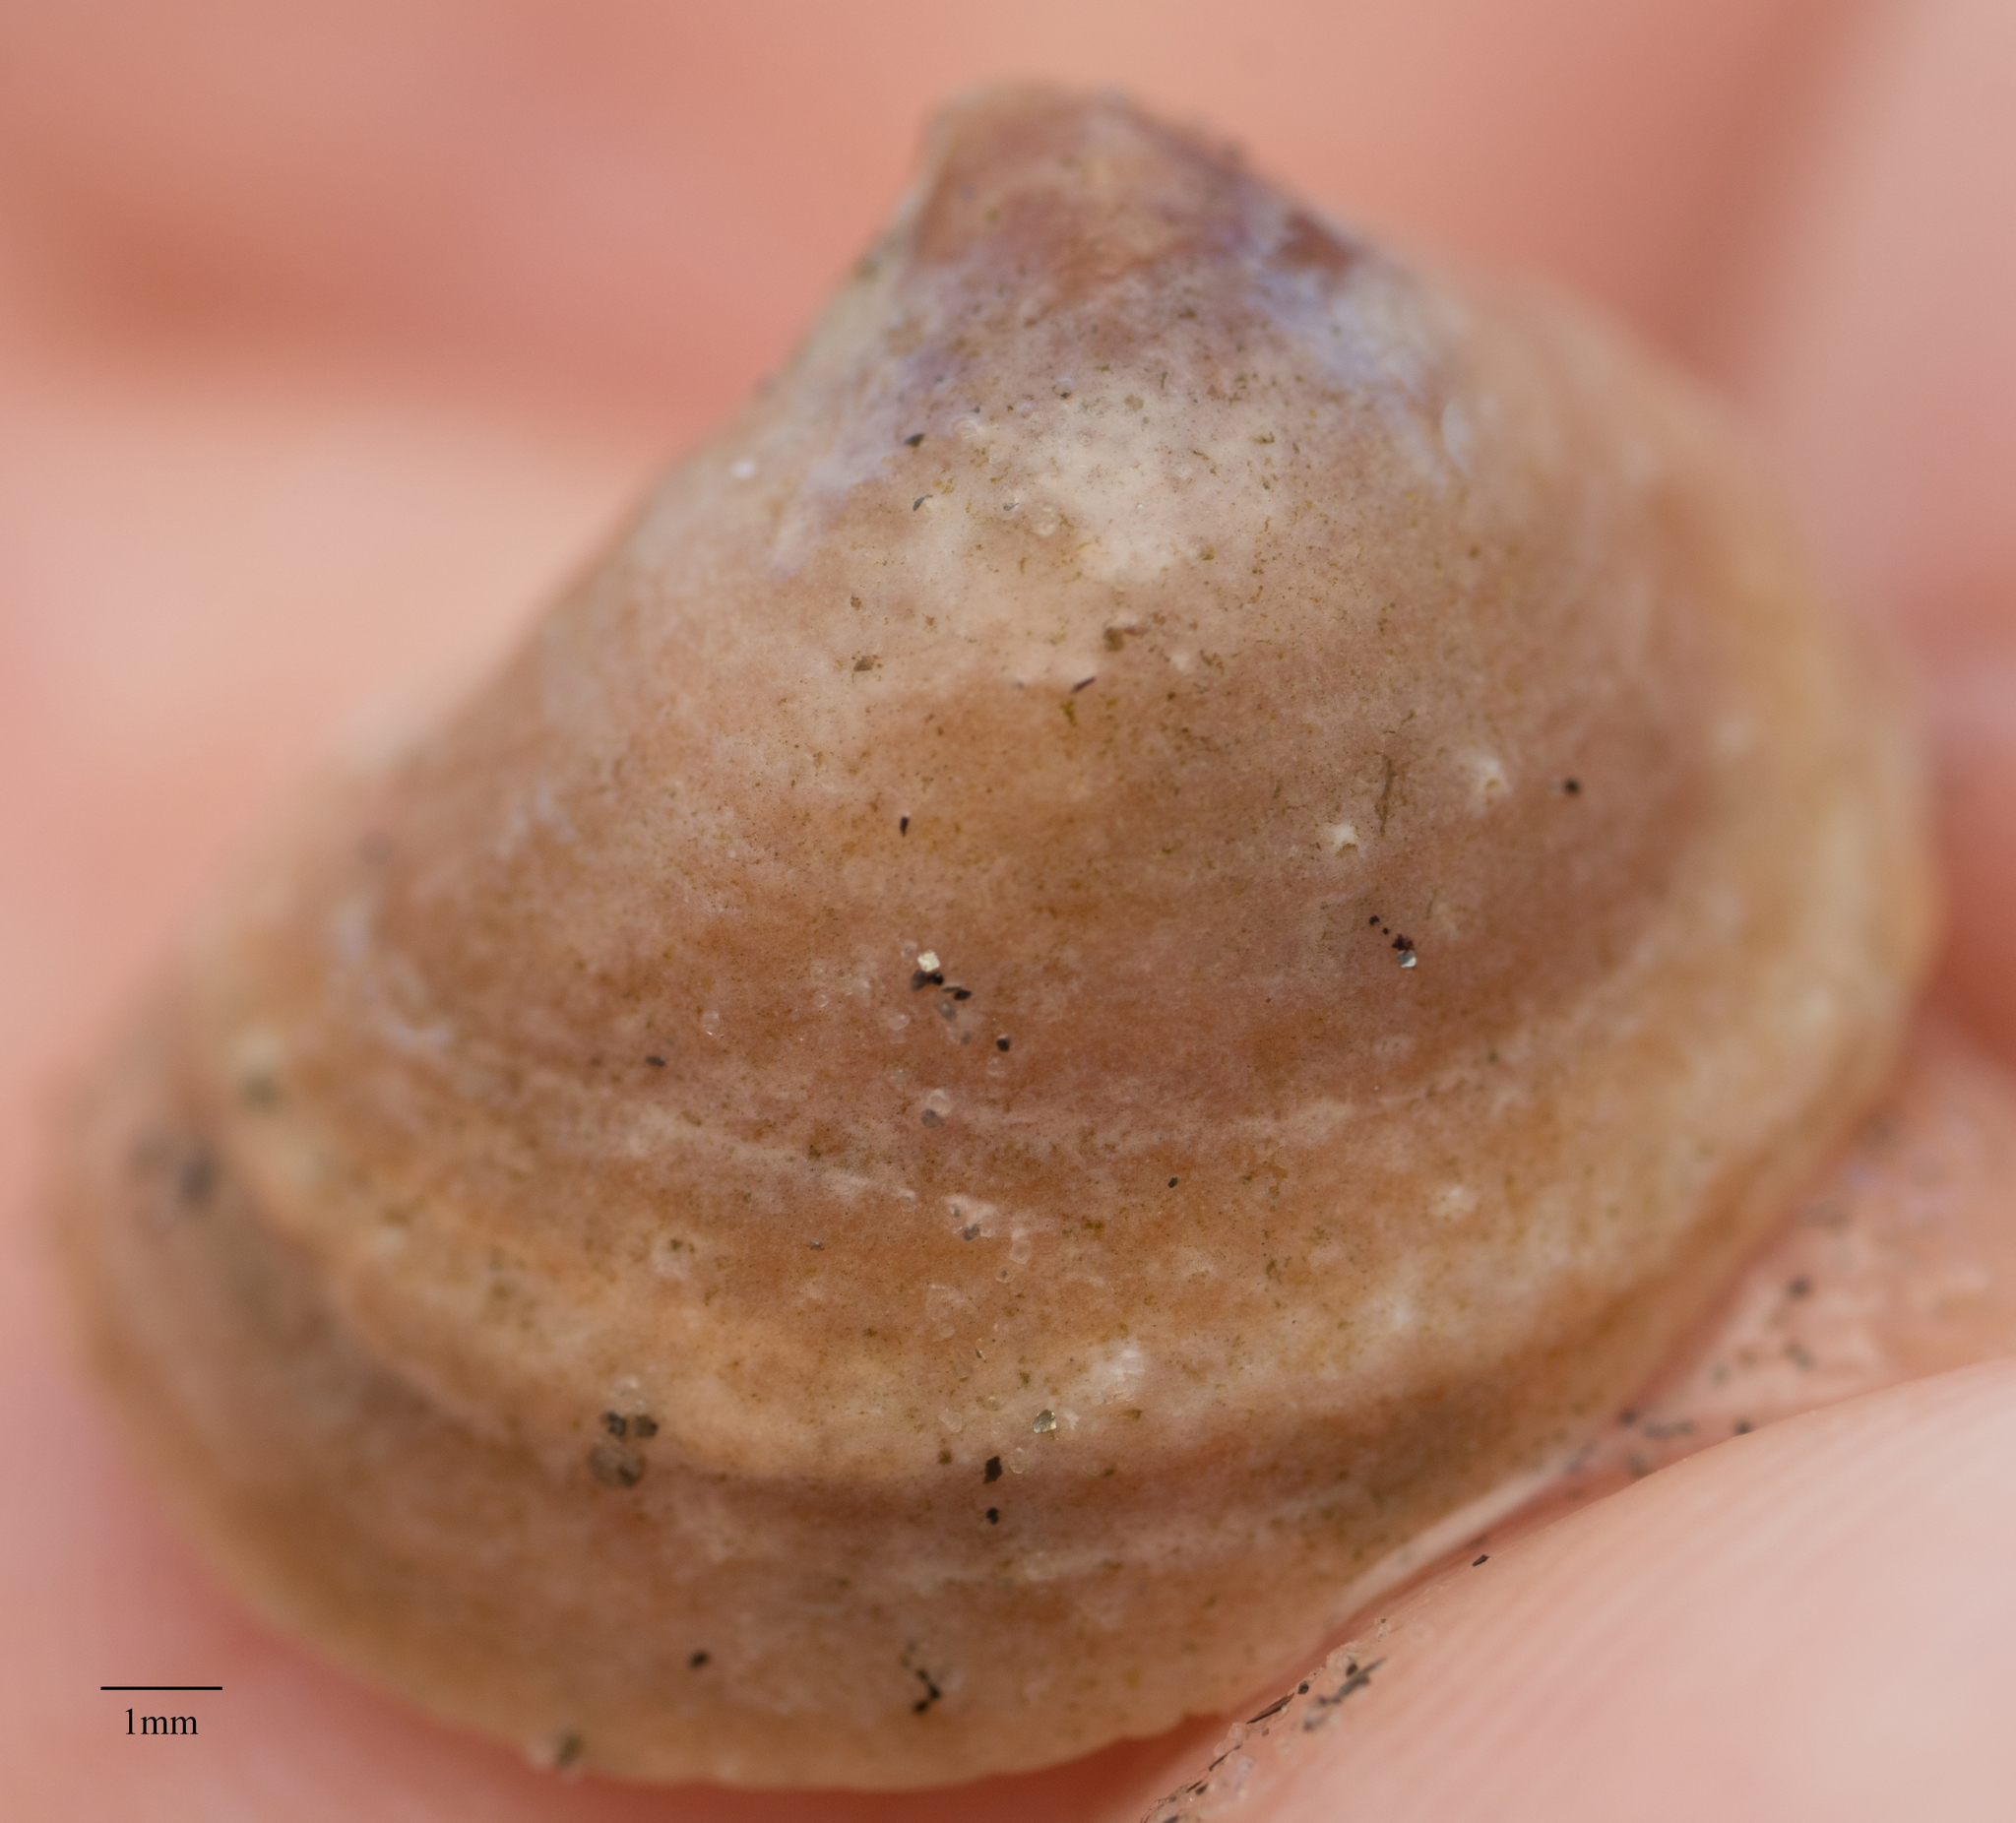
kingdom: Animalia
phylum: Mollusca
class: Gastropoda
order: Littorinimorpha
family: Calyptraeidae
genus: Crucibulum
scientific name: Crucibulum spinosum
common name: Spiny cup-and-saucer
